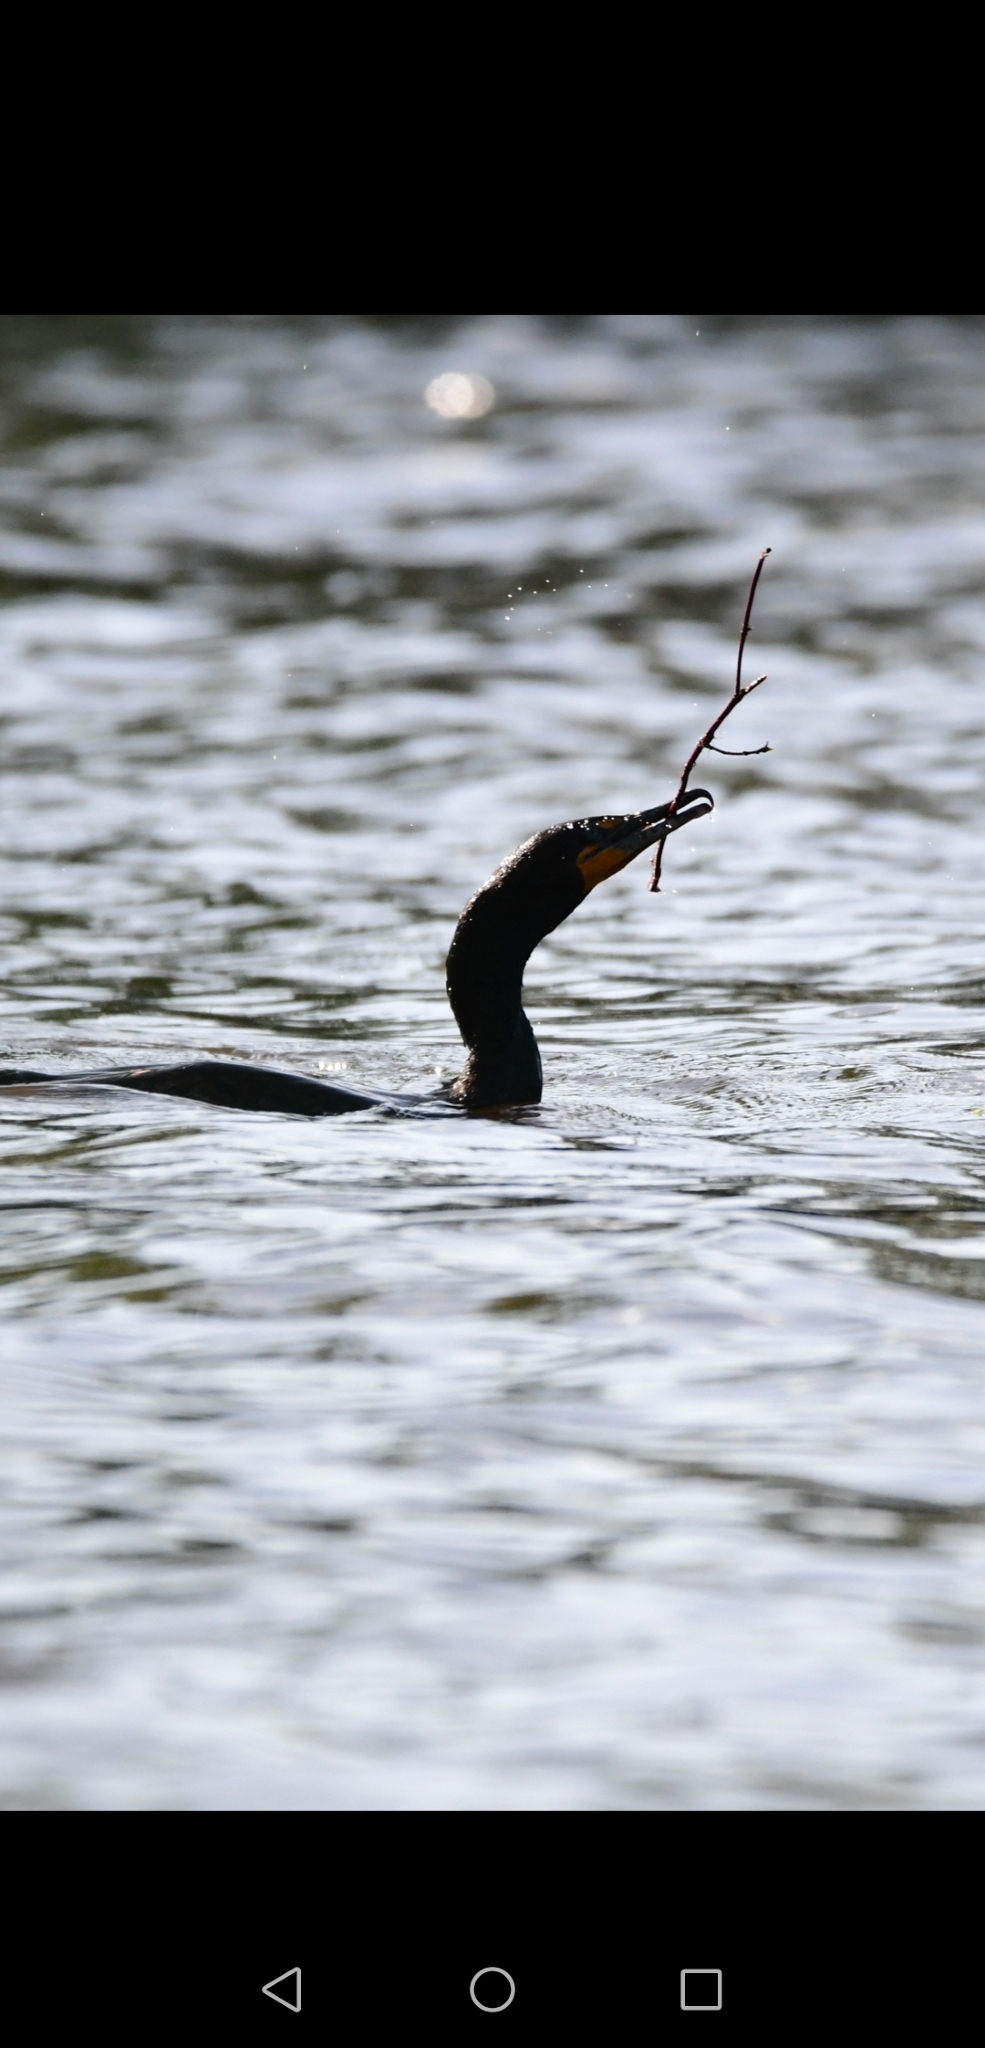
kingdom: Animalia
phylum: Chordata
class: Aves
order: Suliformes
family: Phalacrocoracidae
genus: Phalacrocorax
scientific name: Phalacrocorax auritus
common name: Double-crested cormorant
